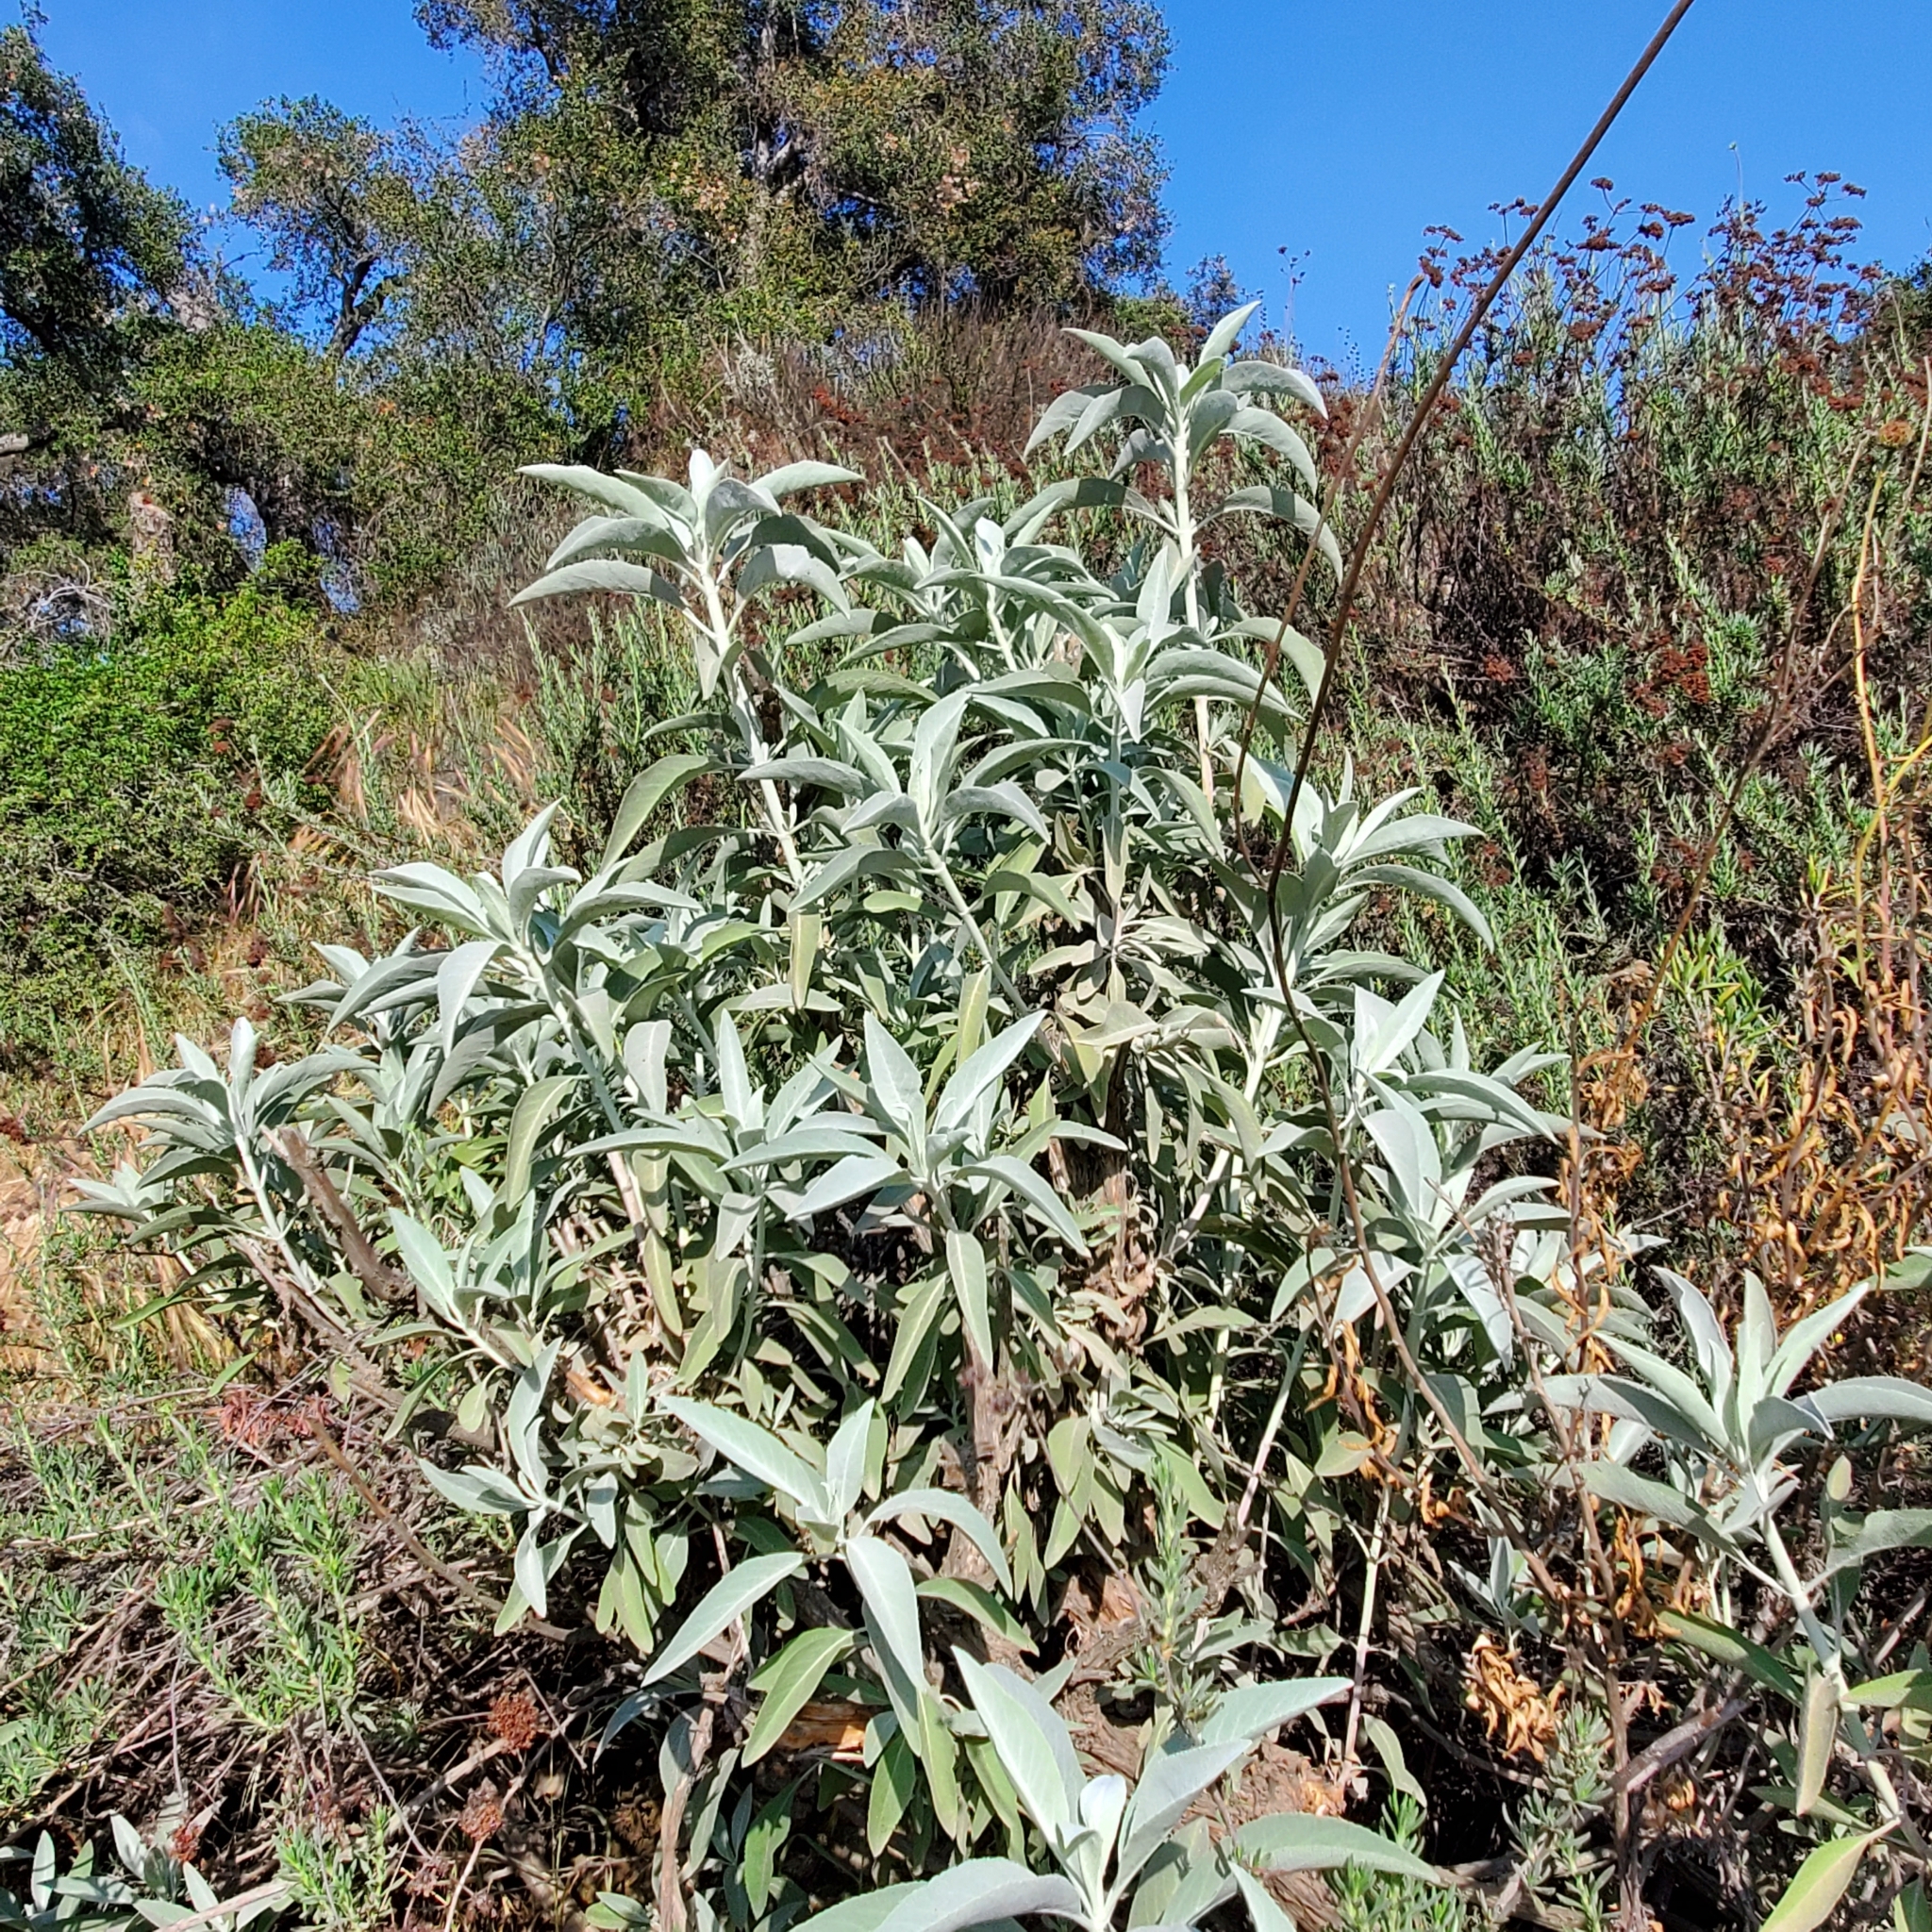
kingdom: Plantae
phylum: Tracheophyta
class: Magnoliopsida
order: Lamiales
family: Lamiaceae
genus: Salvia
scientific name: Salvia apiana
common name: White sage
